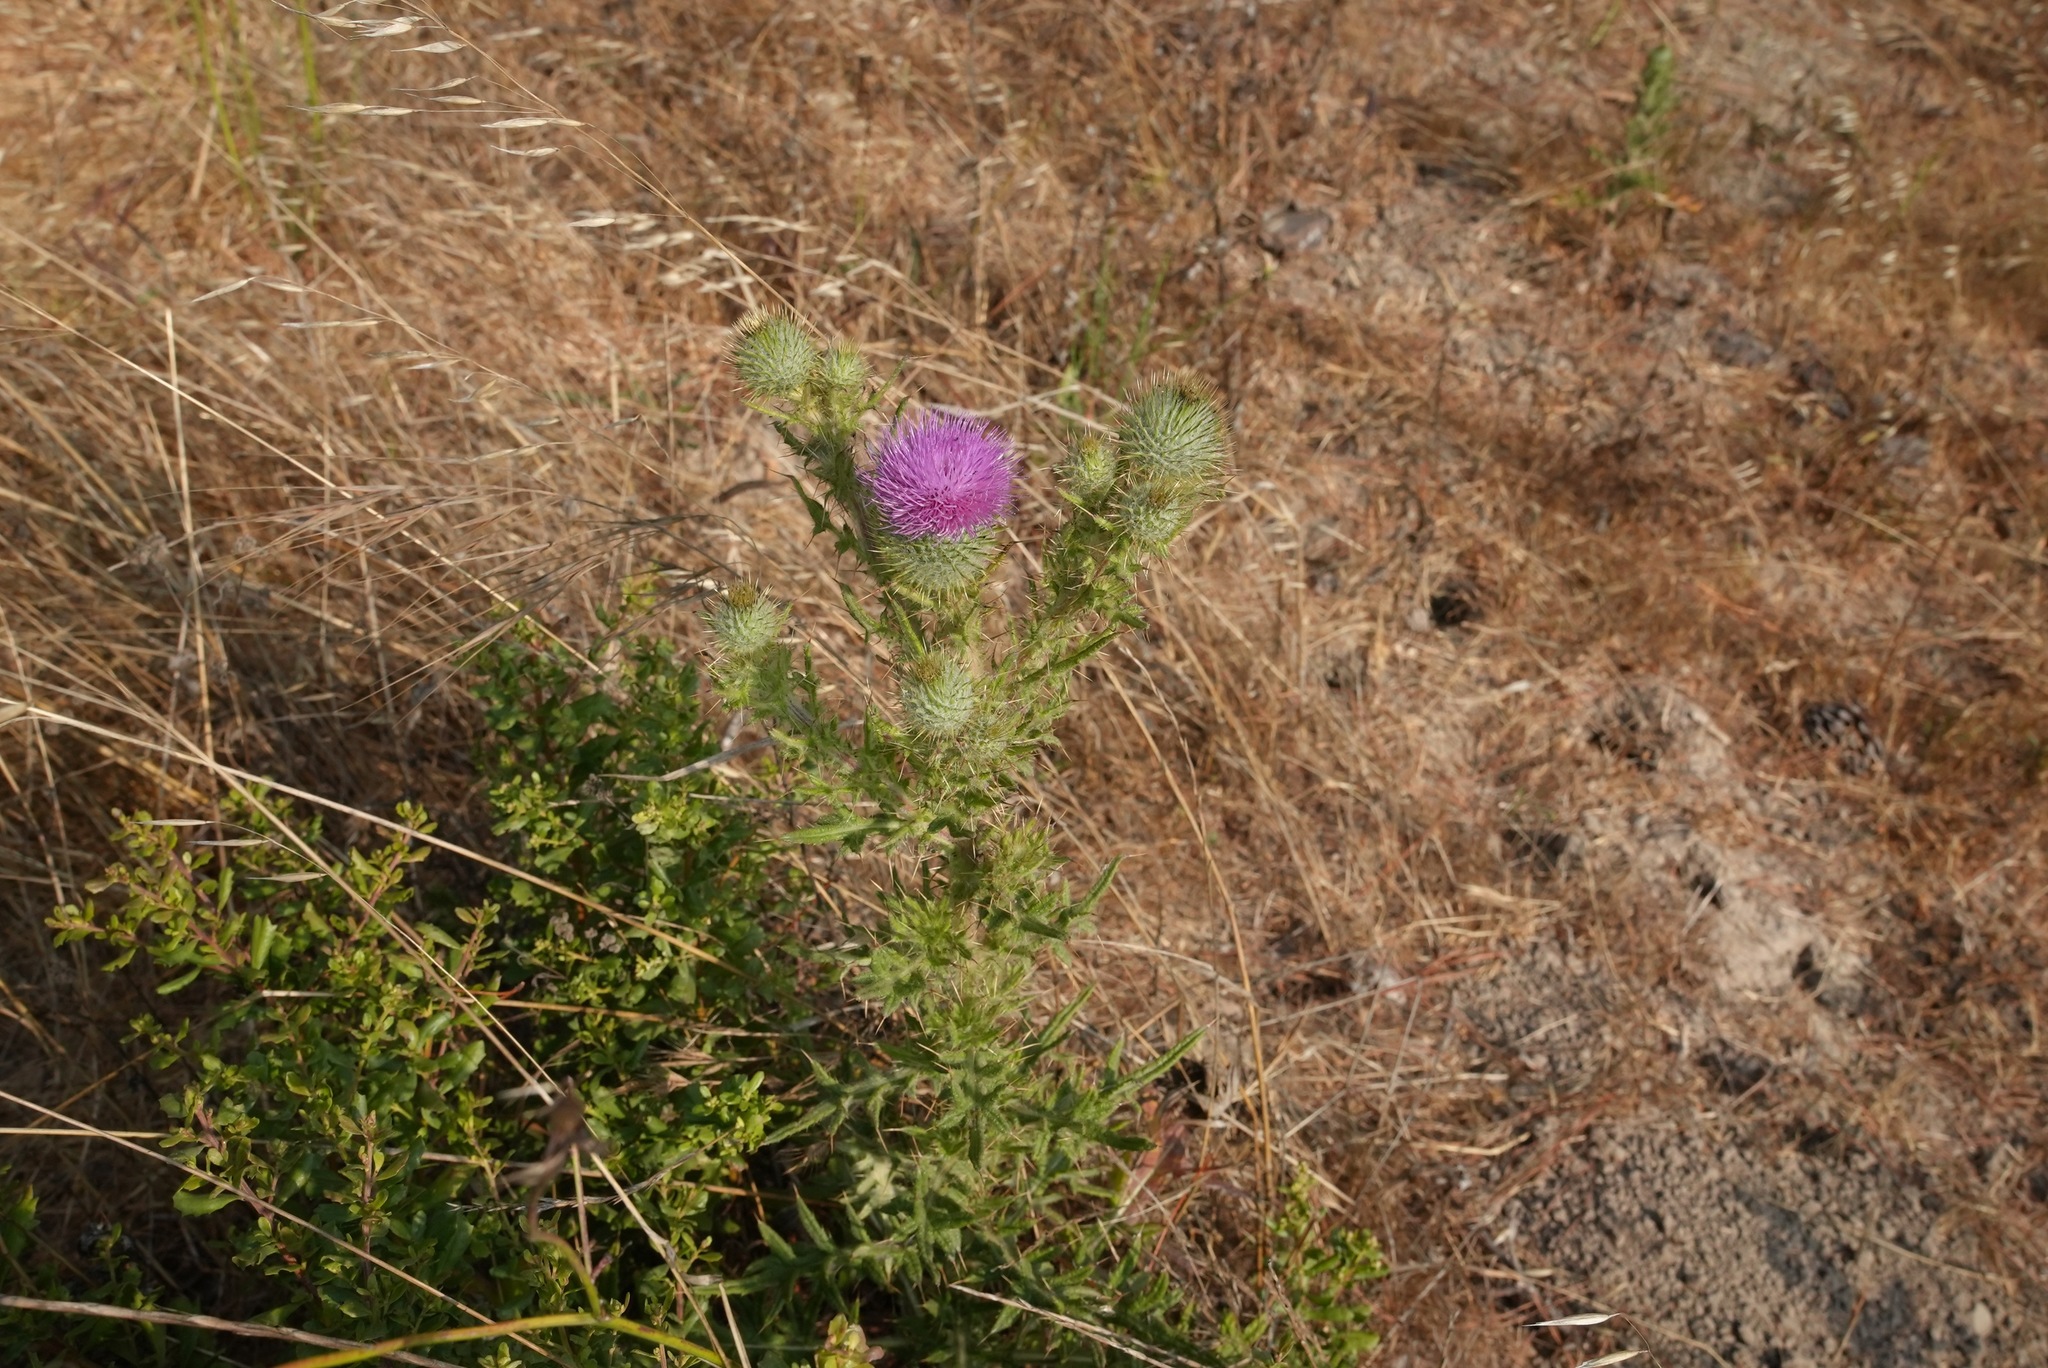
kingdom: Plantae
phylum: Tracheophyta
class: Magnoliopsida
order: Asterales
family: Asteraceae
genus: Cirsium
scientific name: Cirsium vulgare
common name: Bull thistle
